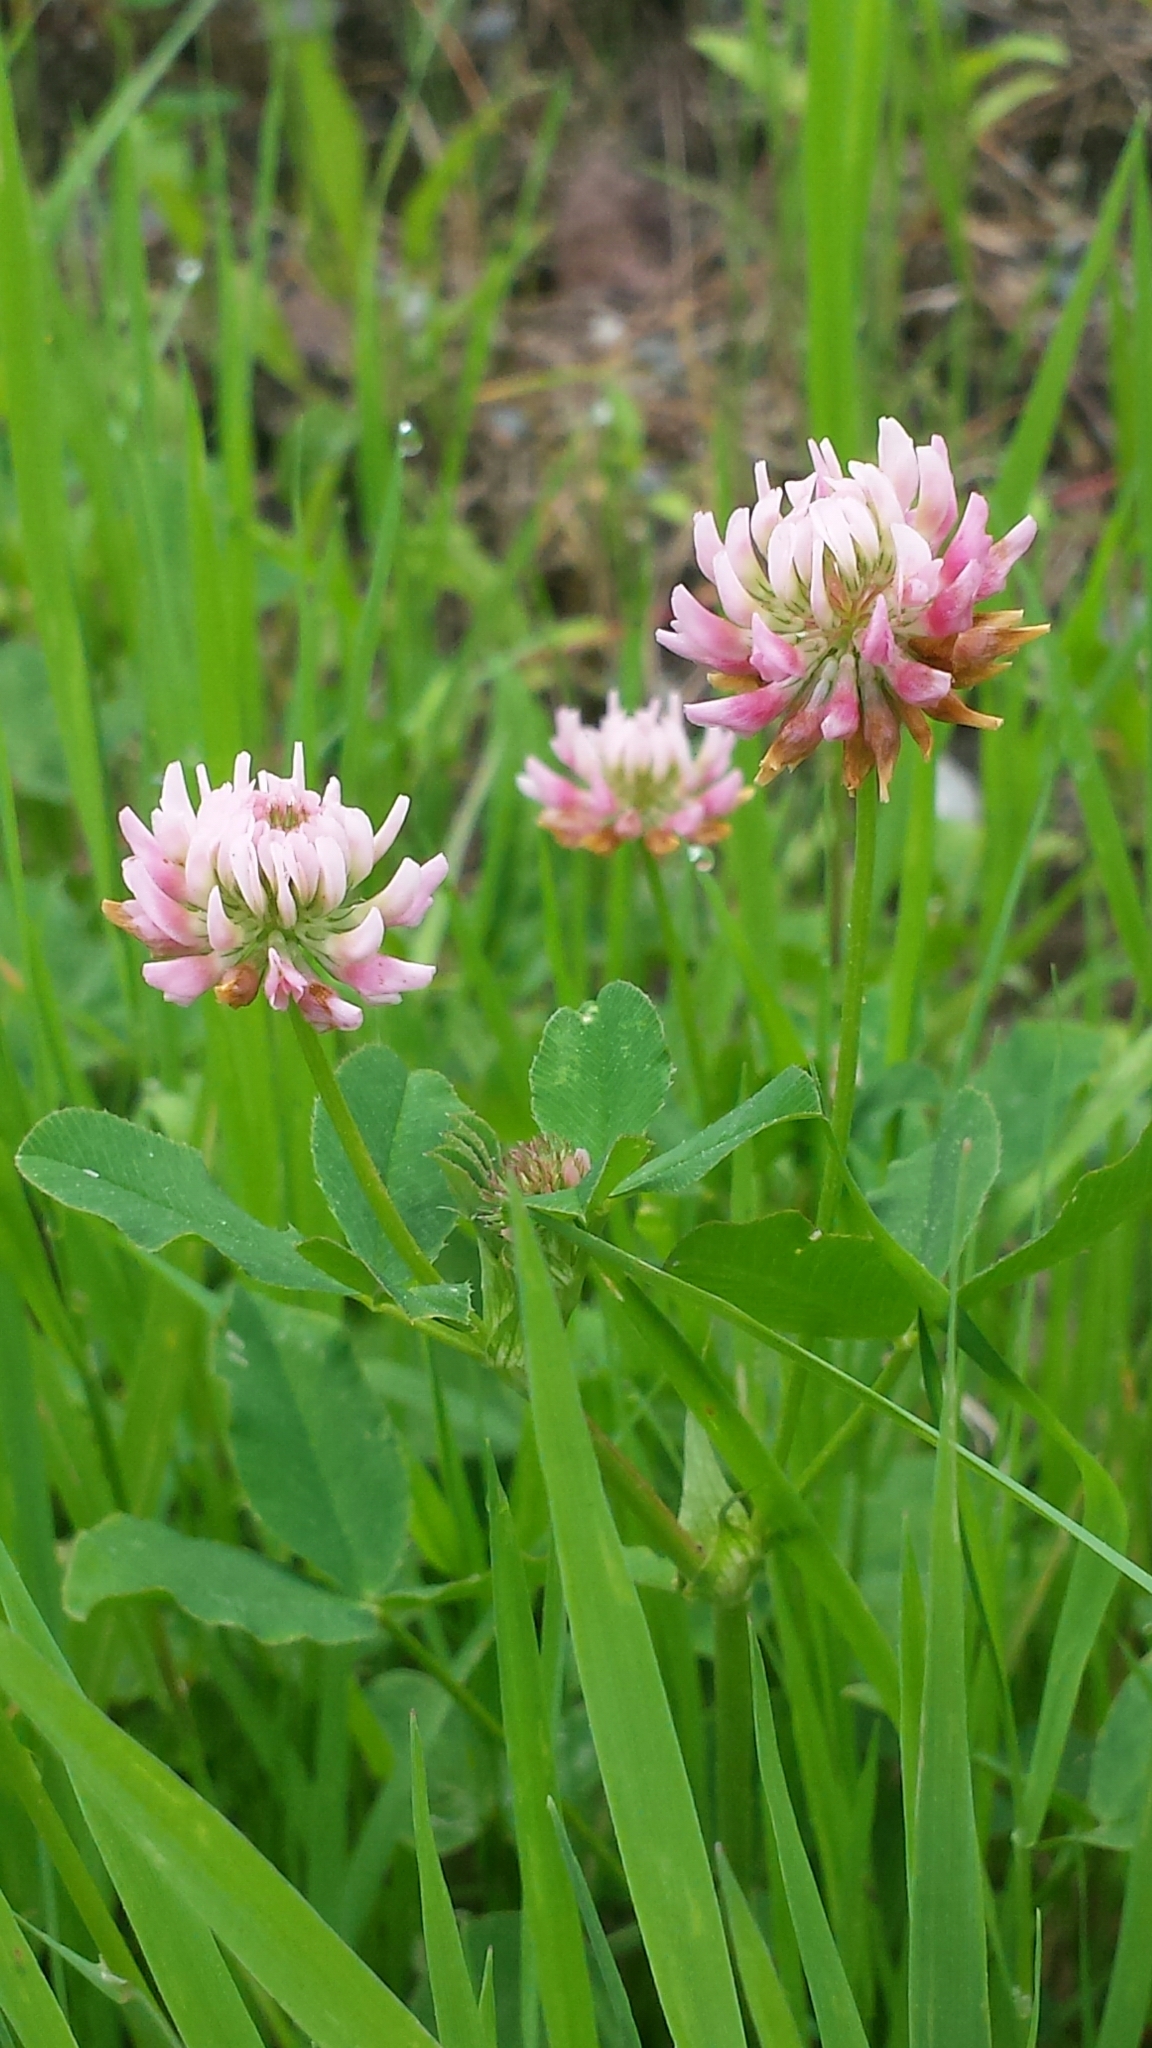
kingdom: Plantae
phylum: Tracheophyta
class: Magnoliopsida
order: Fabales
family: Fabaceae
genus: Trifolium
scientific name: Trifolium hybridum
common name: Alsike clover
